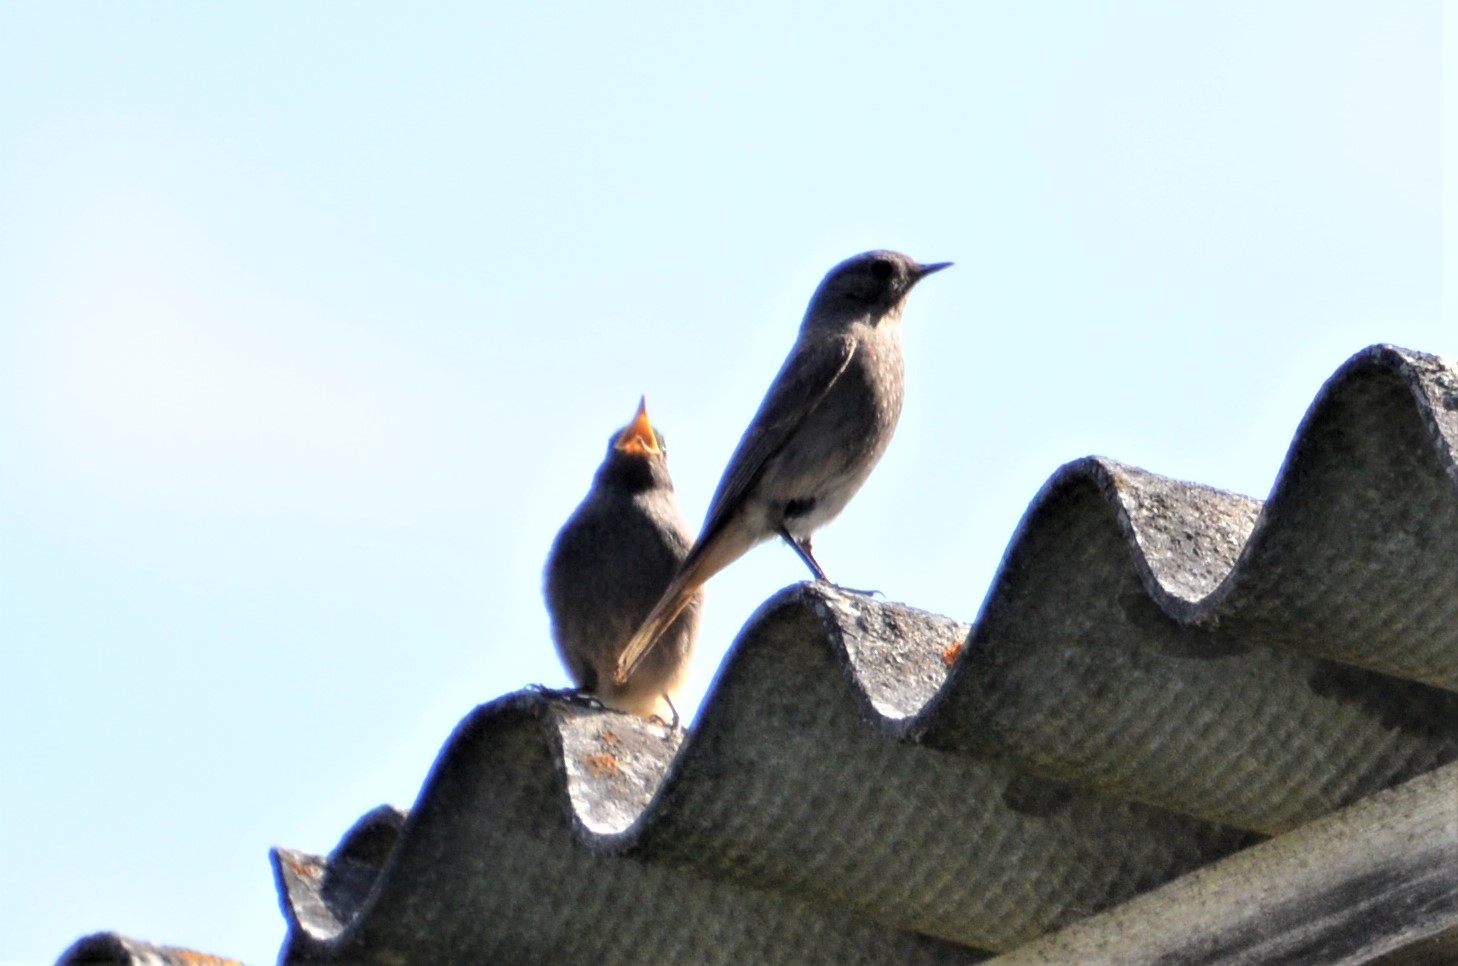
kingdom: Animalia
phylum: Chordata
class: Aves
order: Passeriformes
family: Muscicapidae
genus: Phoenicurus
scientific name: Phoenicurus ochruros
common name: Black redstart
